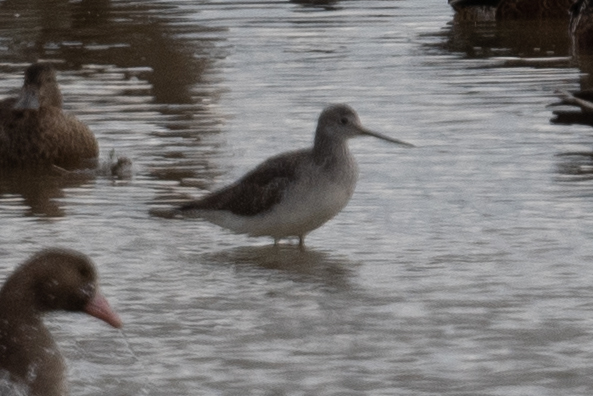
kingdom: Animalia
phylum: Chordata
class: Aves
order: Charadriiformes
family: Scolopacidae
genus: Tringa
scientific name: Tringa melanoleuca
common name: Greater yellowlegs
